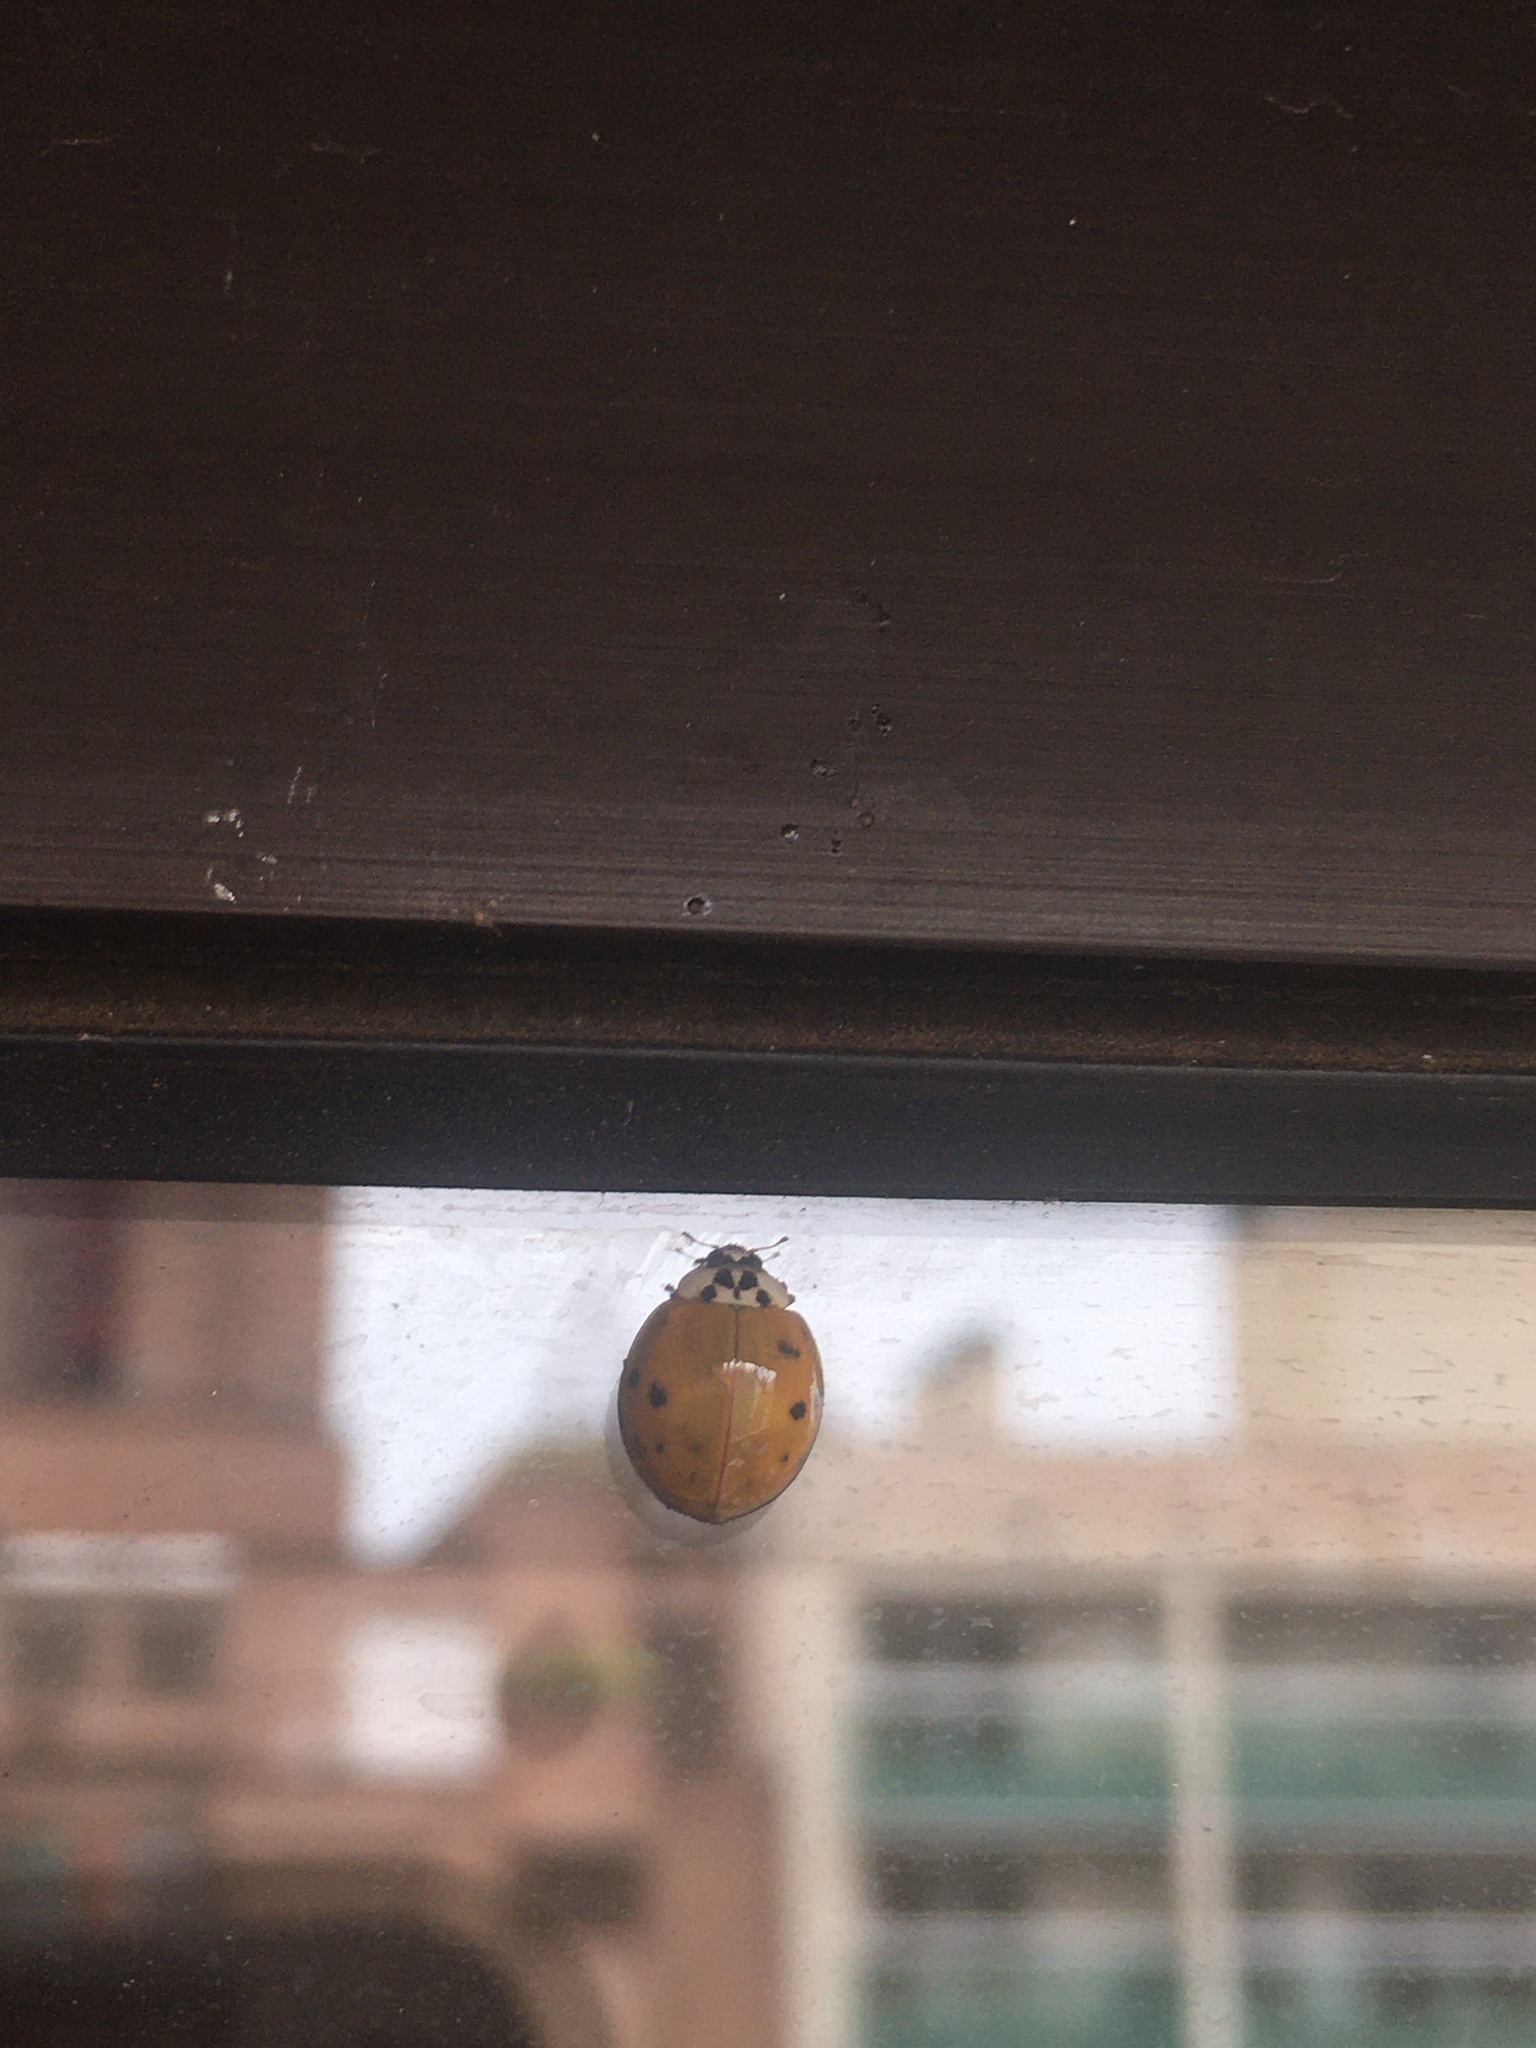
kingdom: Animalia
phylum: Arthropoda
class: Insecta
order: Coleoptera
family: Coccinellidae
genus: Harmonia
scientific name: Harmonia axyridis
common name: Harlequin ladybird
